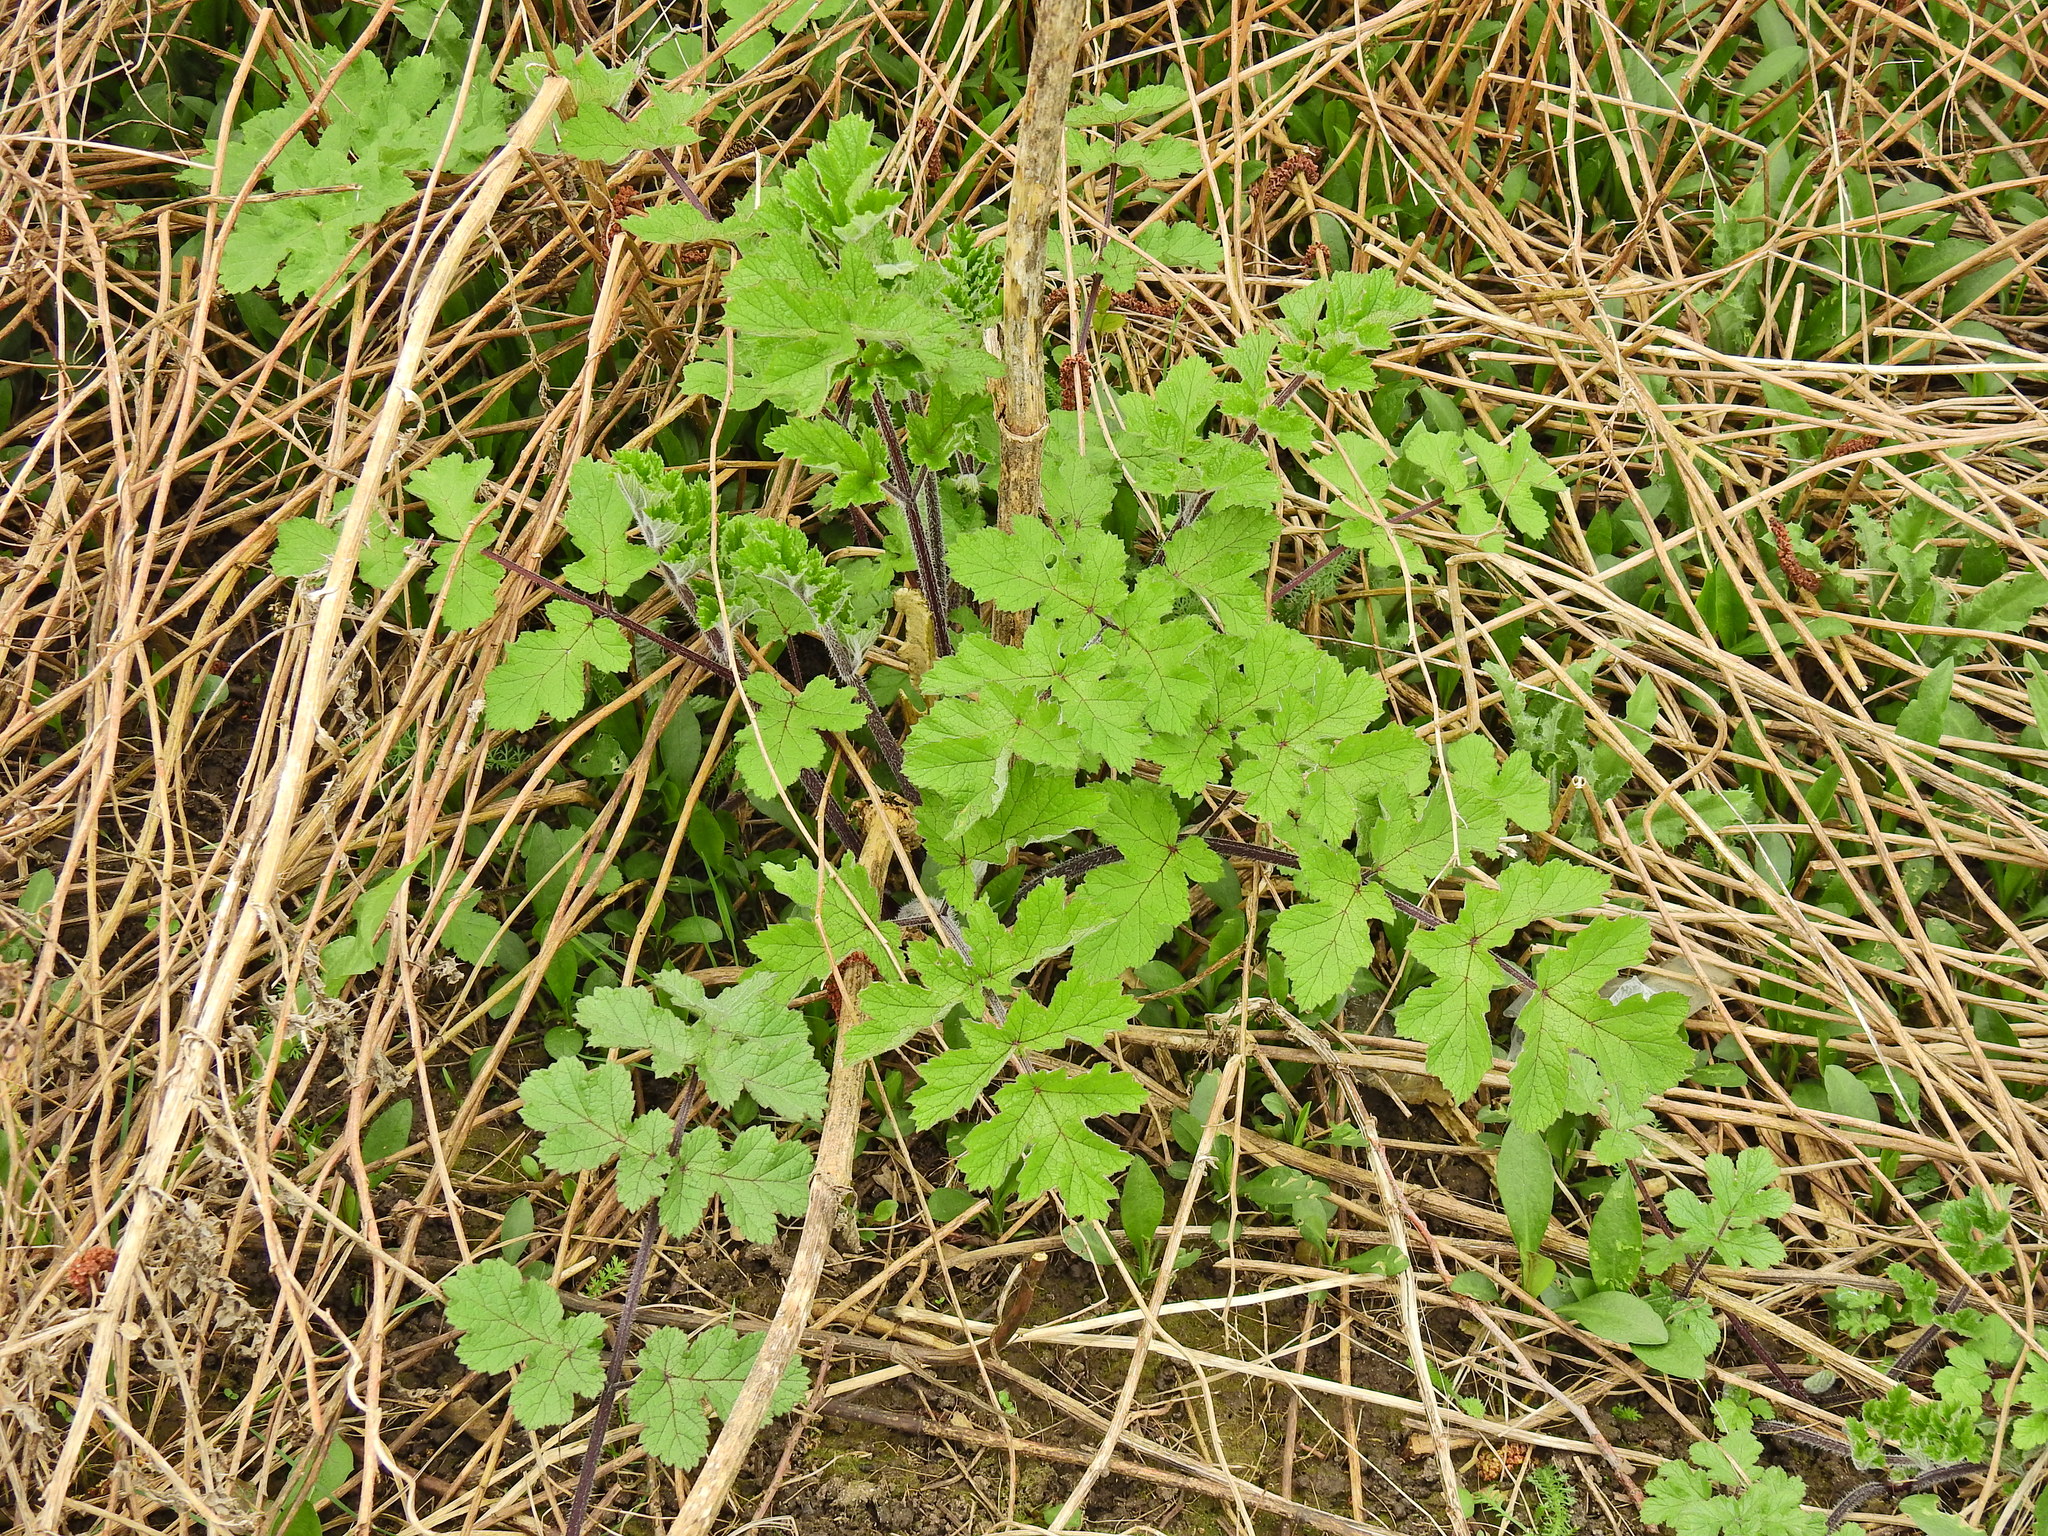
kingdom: Plantae
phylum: Tracheophyta
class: Magnoliopsida
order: Apiales
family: Apiaceae
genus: Heracleum
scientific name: Heracleum sphondylium
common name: Hogweed
